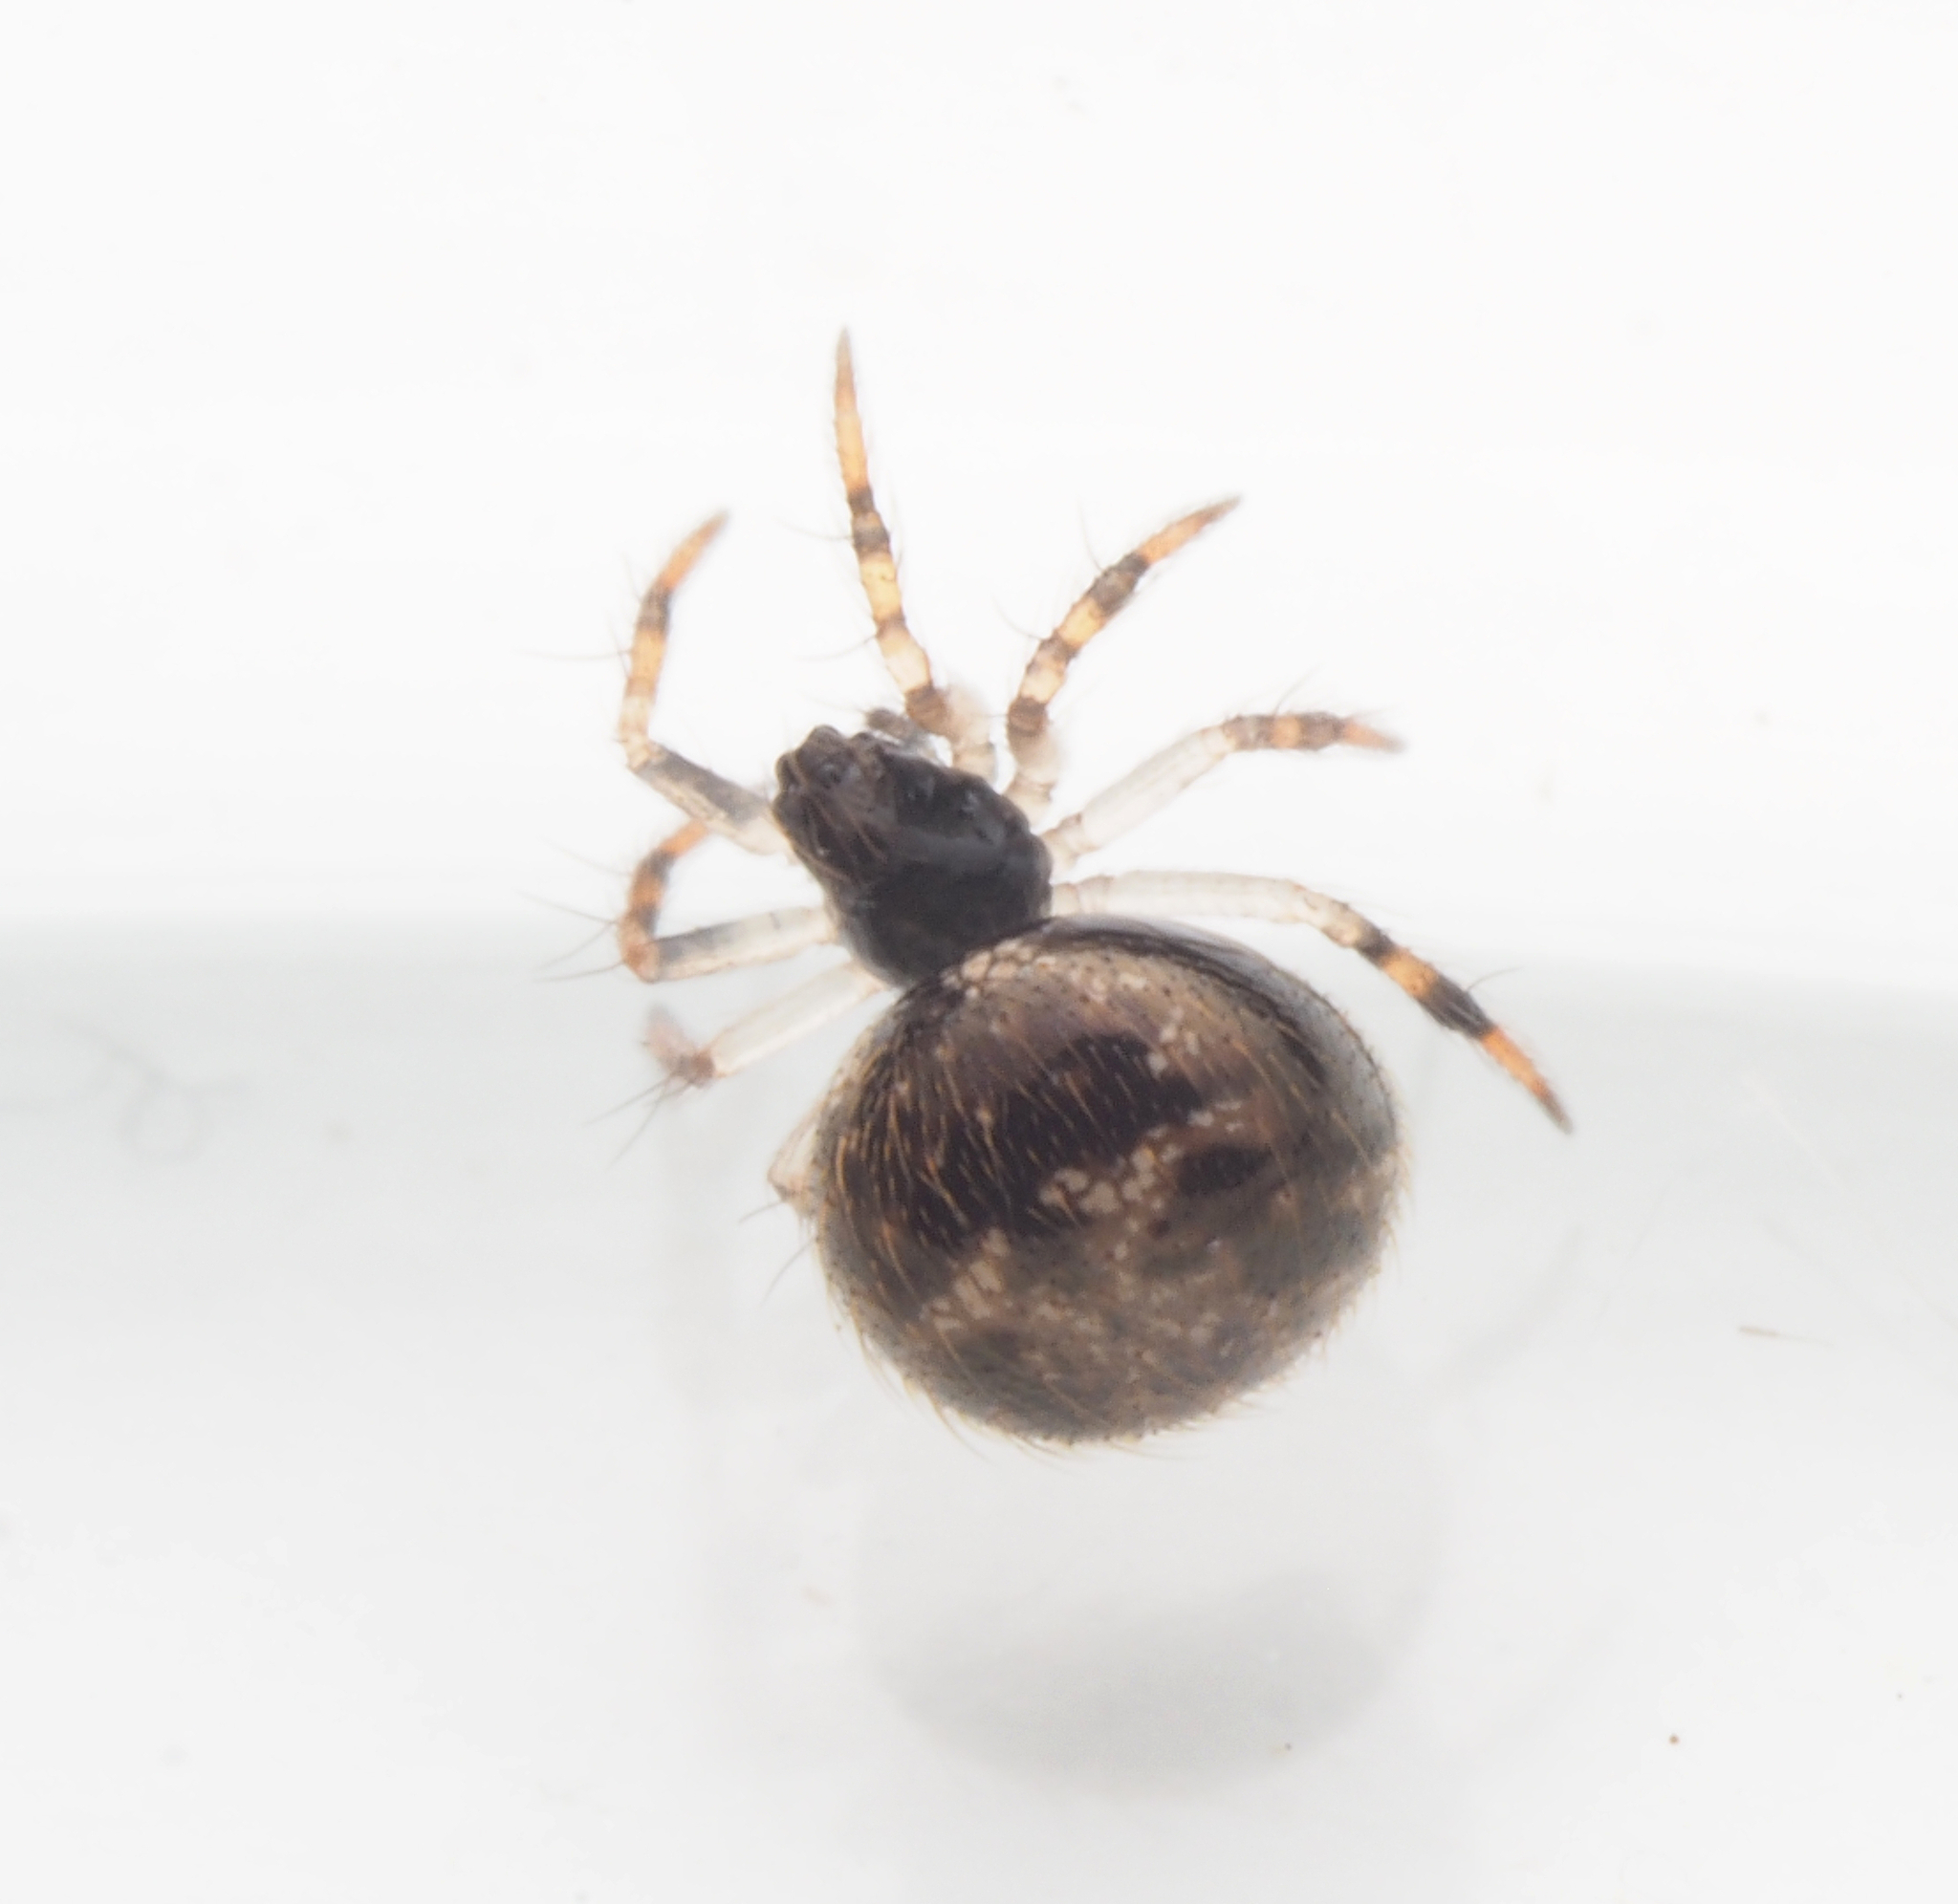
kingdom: Animalia
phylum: Arthropoda
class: Arachnida
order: Araneae
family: Theridiidae
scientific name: Theridiidae
